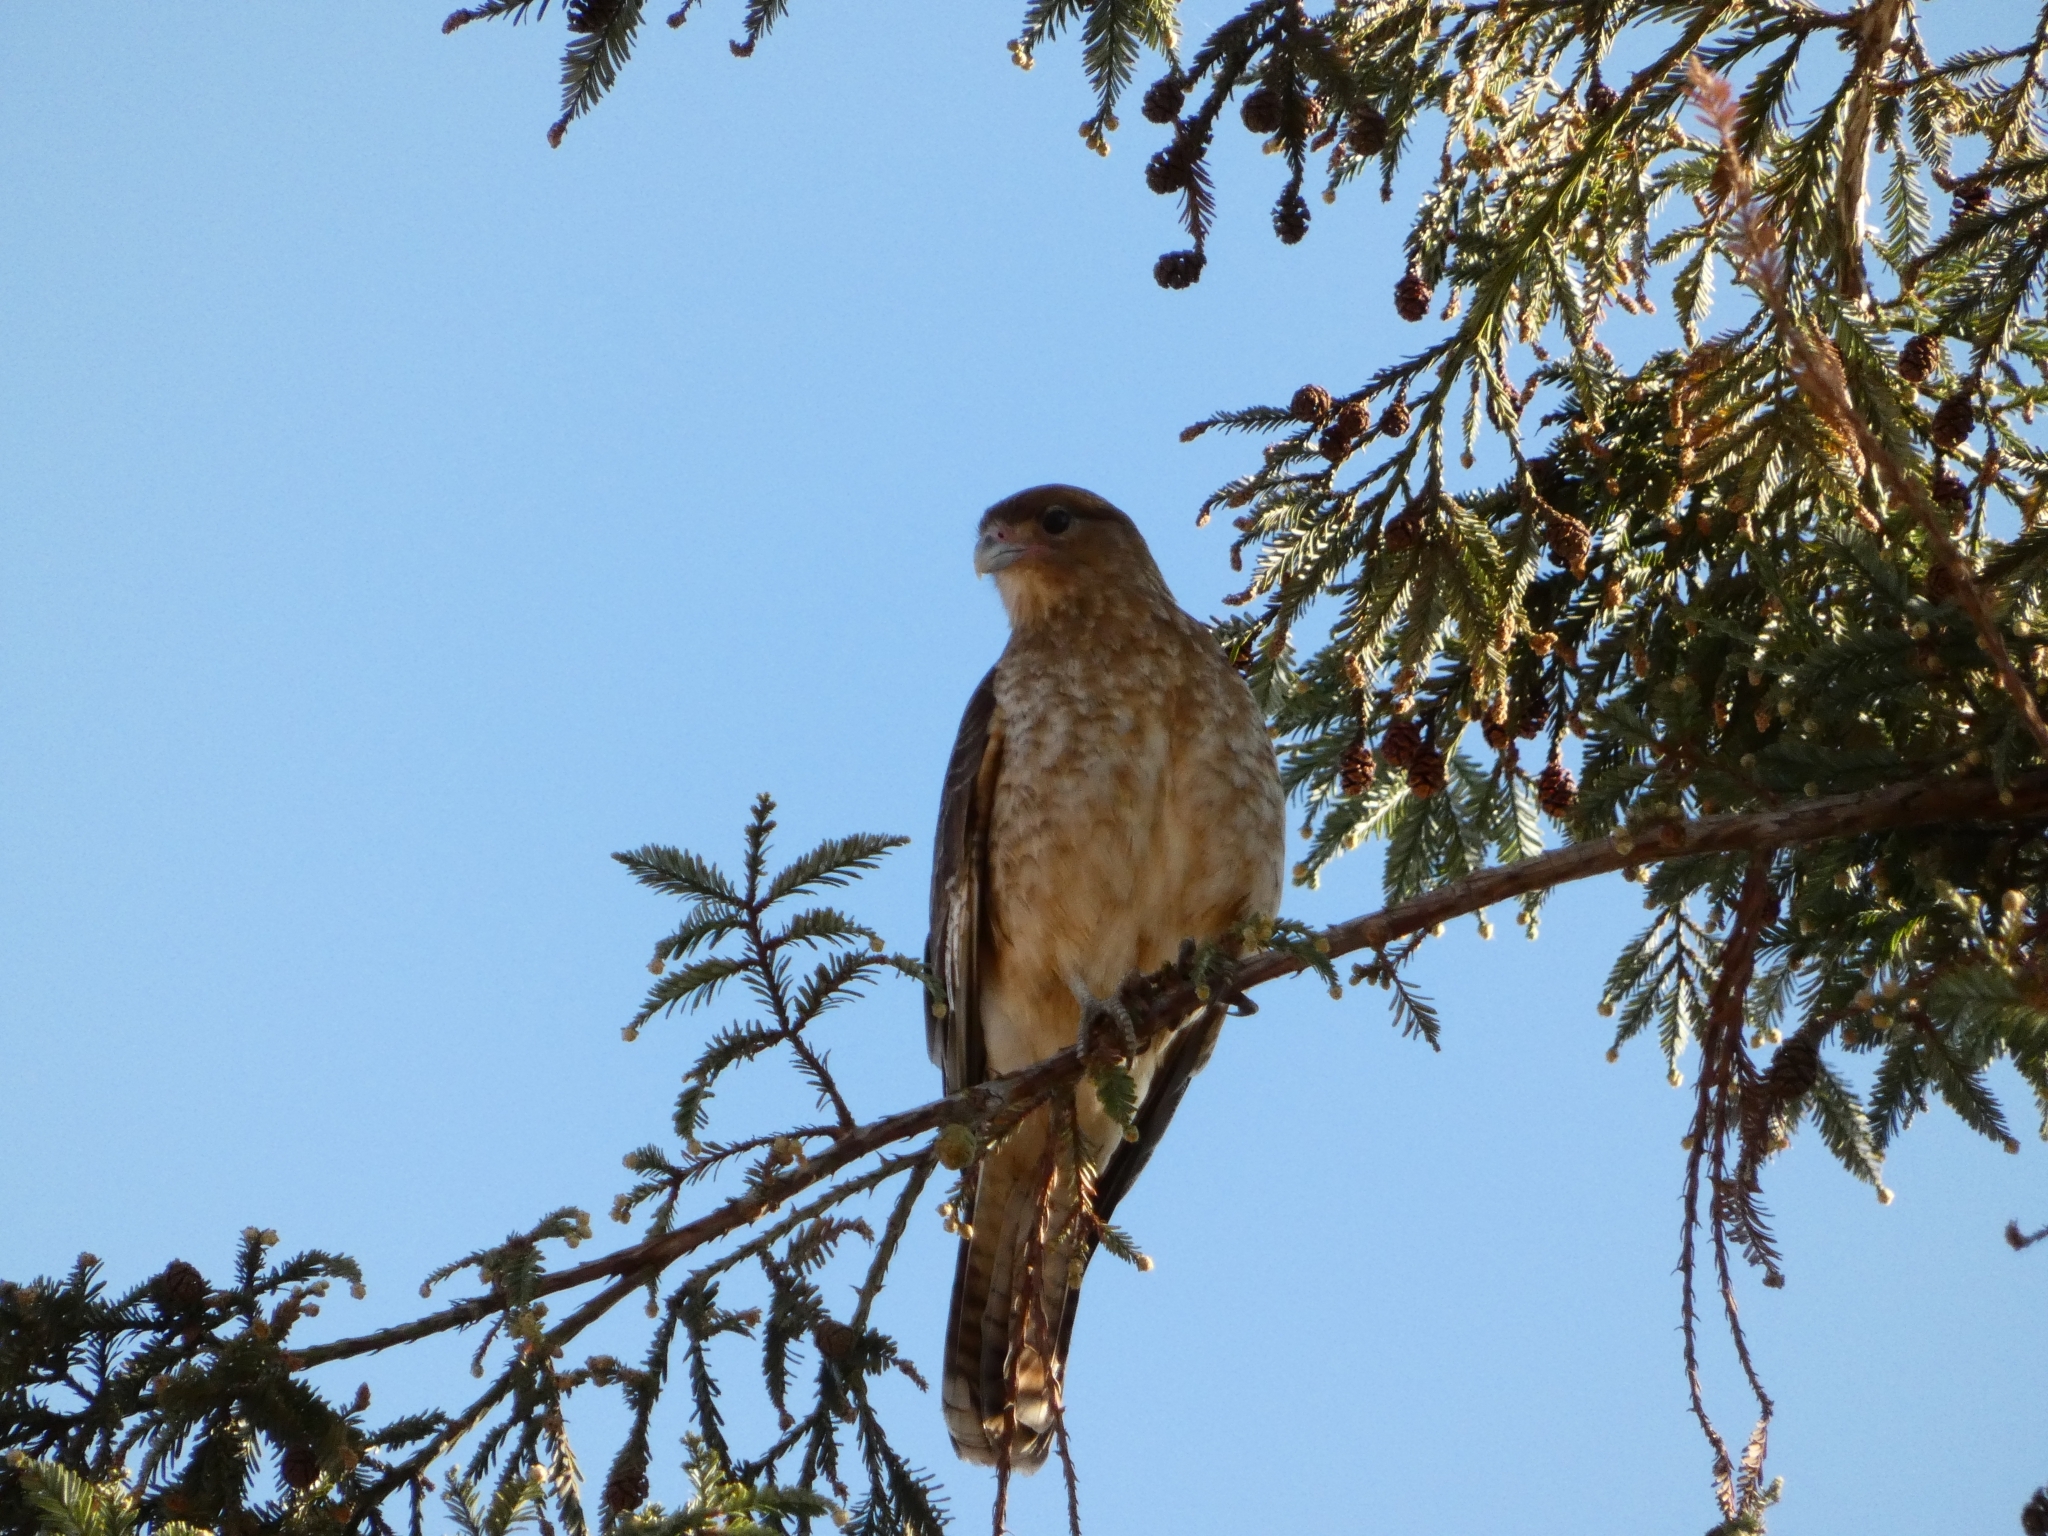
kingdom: Animalia
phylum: Chordata
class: Aves
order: Falconiformes
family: Falconidae
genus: Daptrius
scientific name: Daptrius
